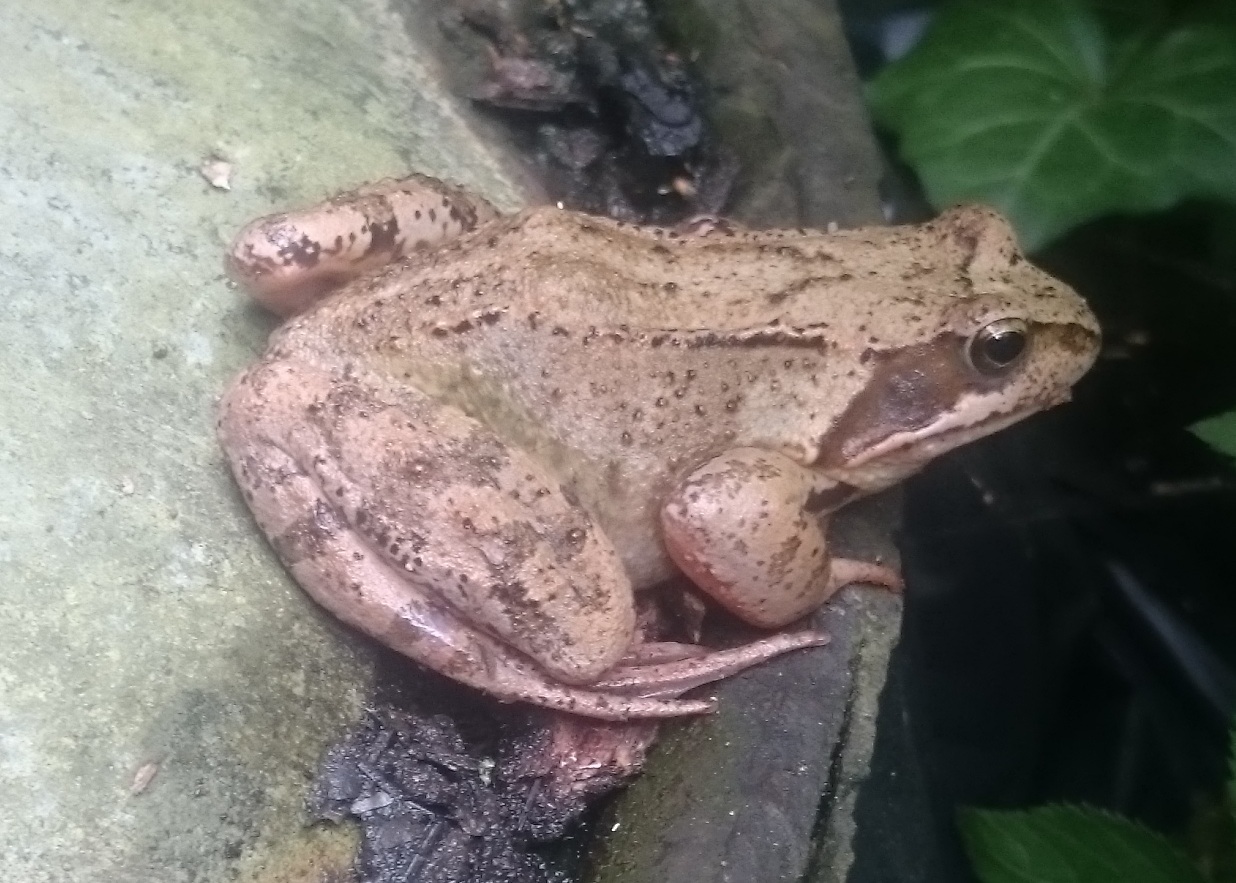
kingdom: Animalia
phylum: Chordata
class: Amphibia
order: Anura
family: Ranidae
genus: Rana
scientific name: Rana temporaria
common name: Common frog
